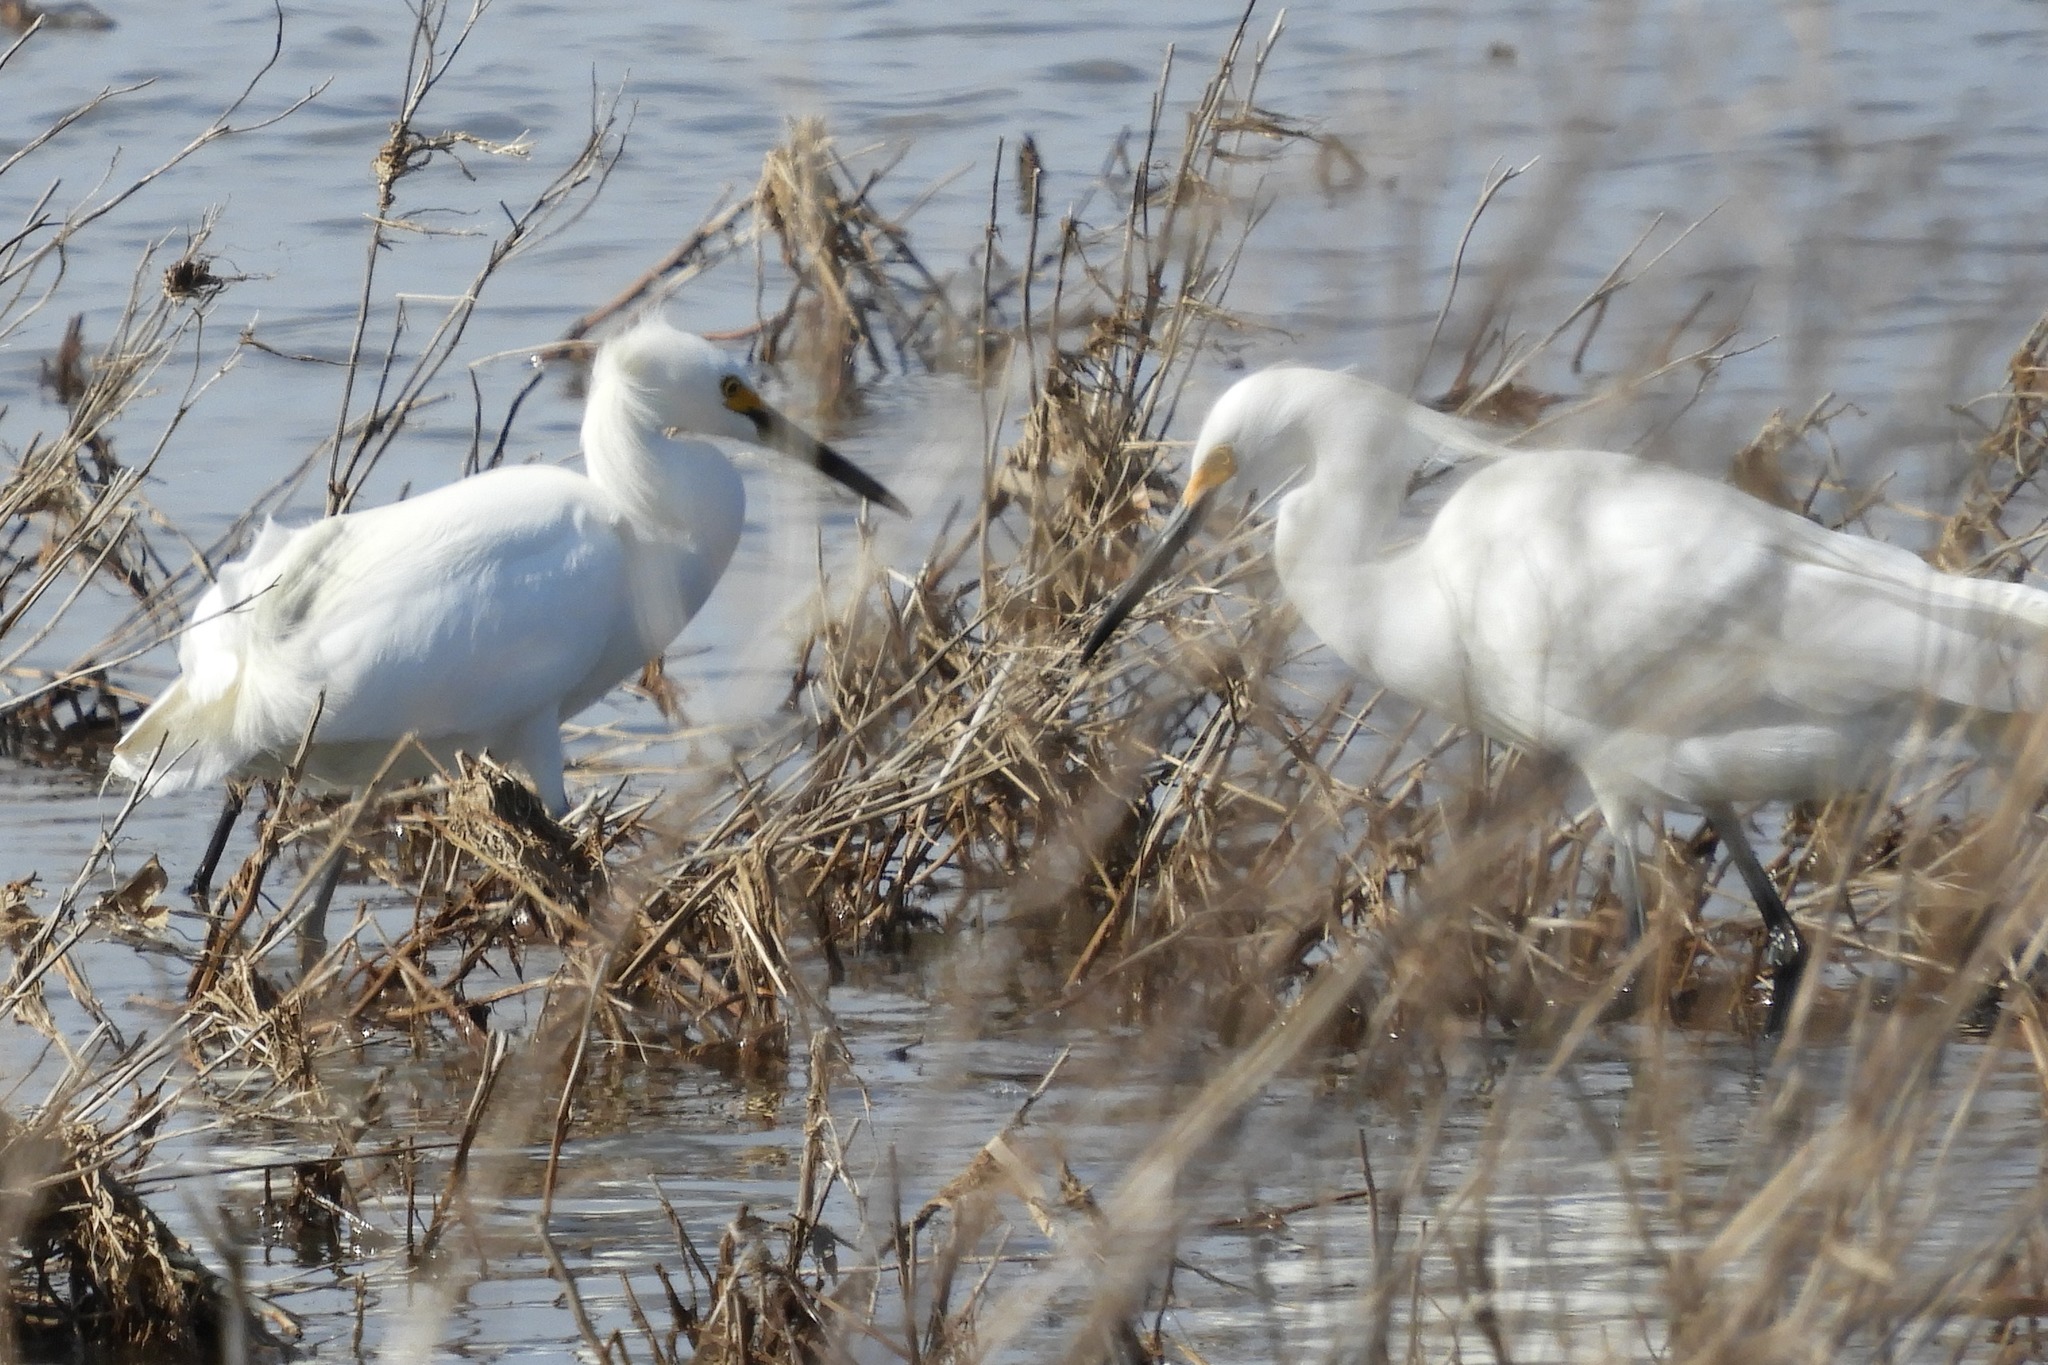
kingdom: Animalia
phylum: Chordata
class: Aves
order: Pelecaniformes
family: Ardeidae
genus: Egretta
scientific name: Egretta thula
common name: Snowy egret
